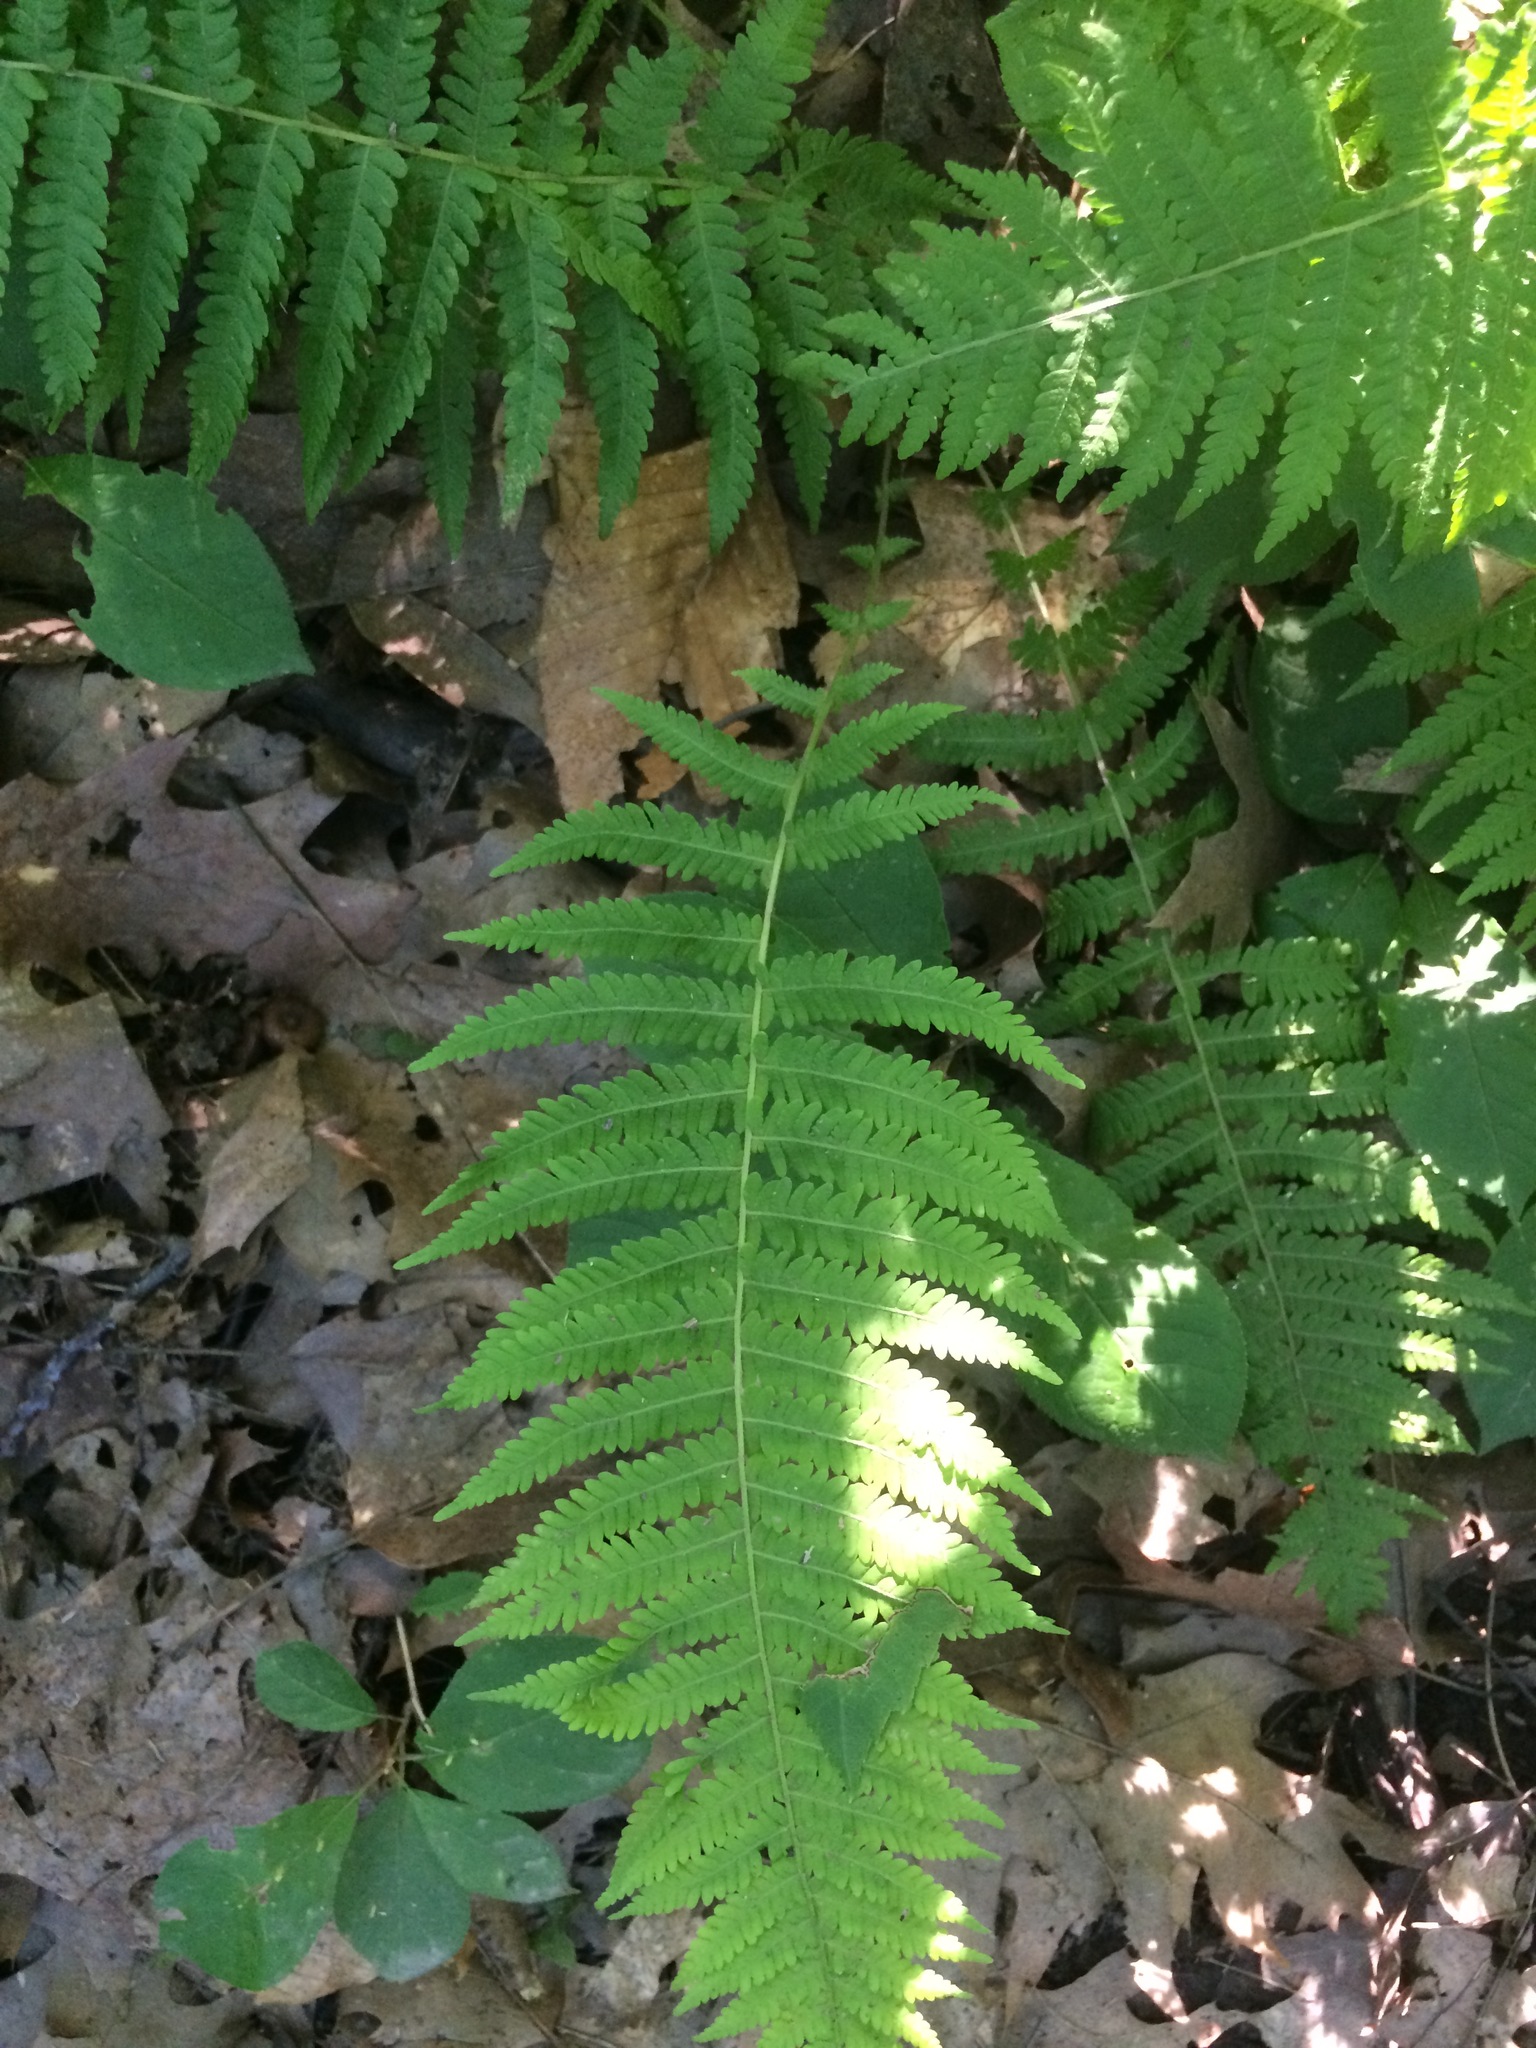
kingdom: Plantae
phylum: Tracheophyta
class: Polypodiopsida
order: Polypodiales
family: Thelypteridaceae
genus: Amauropelta
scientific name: Amauropelta noveboracensis
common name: New york fern
